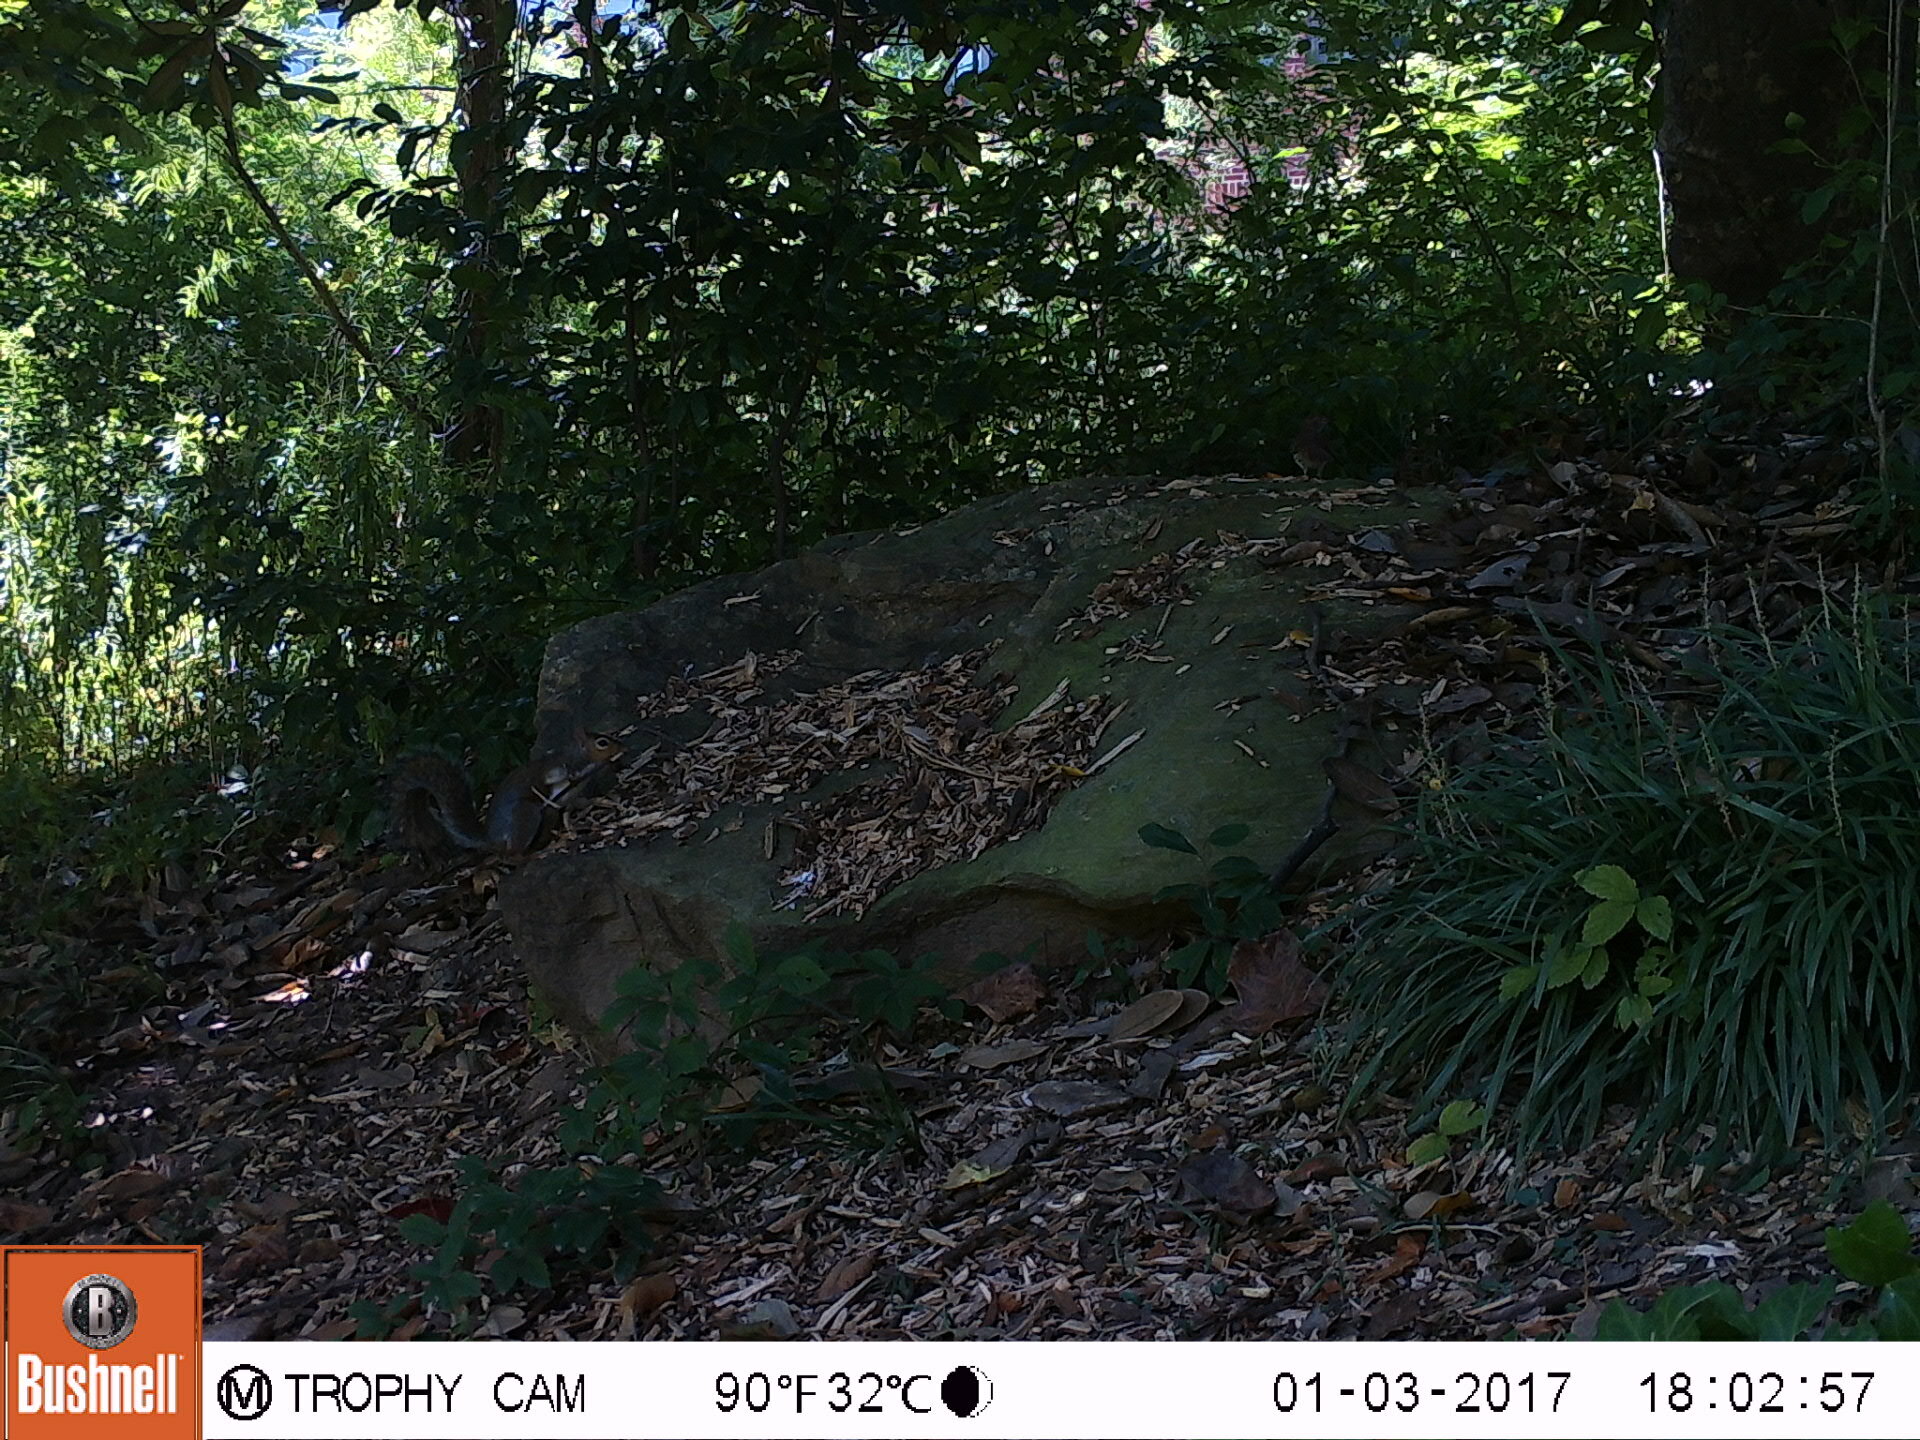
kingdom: Animalia
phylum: Chordata
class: Mammalia
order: Rodentia
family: Sciuridae
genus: Sciurus
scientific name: Sciurus carolinensis
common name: Eastern gray squirrel
